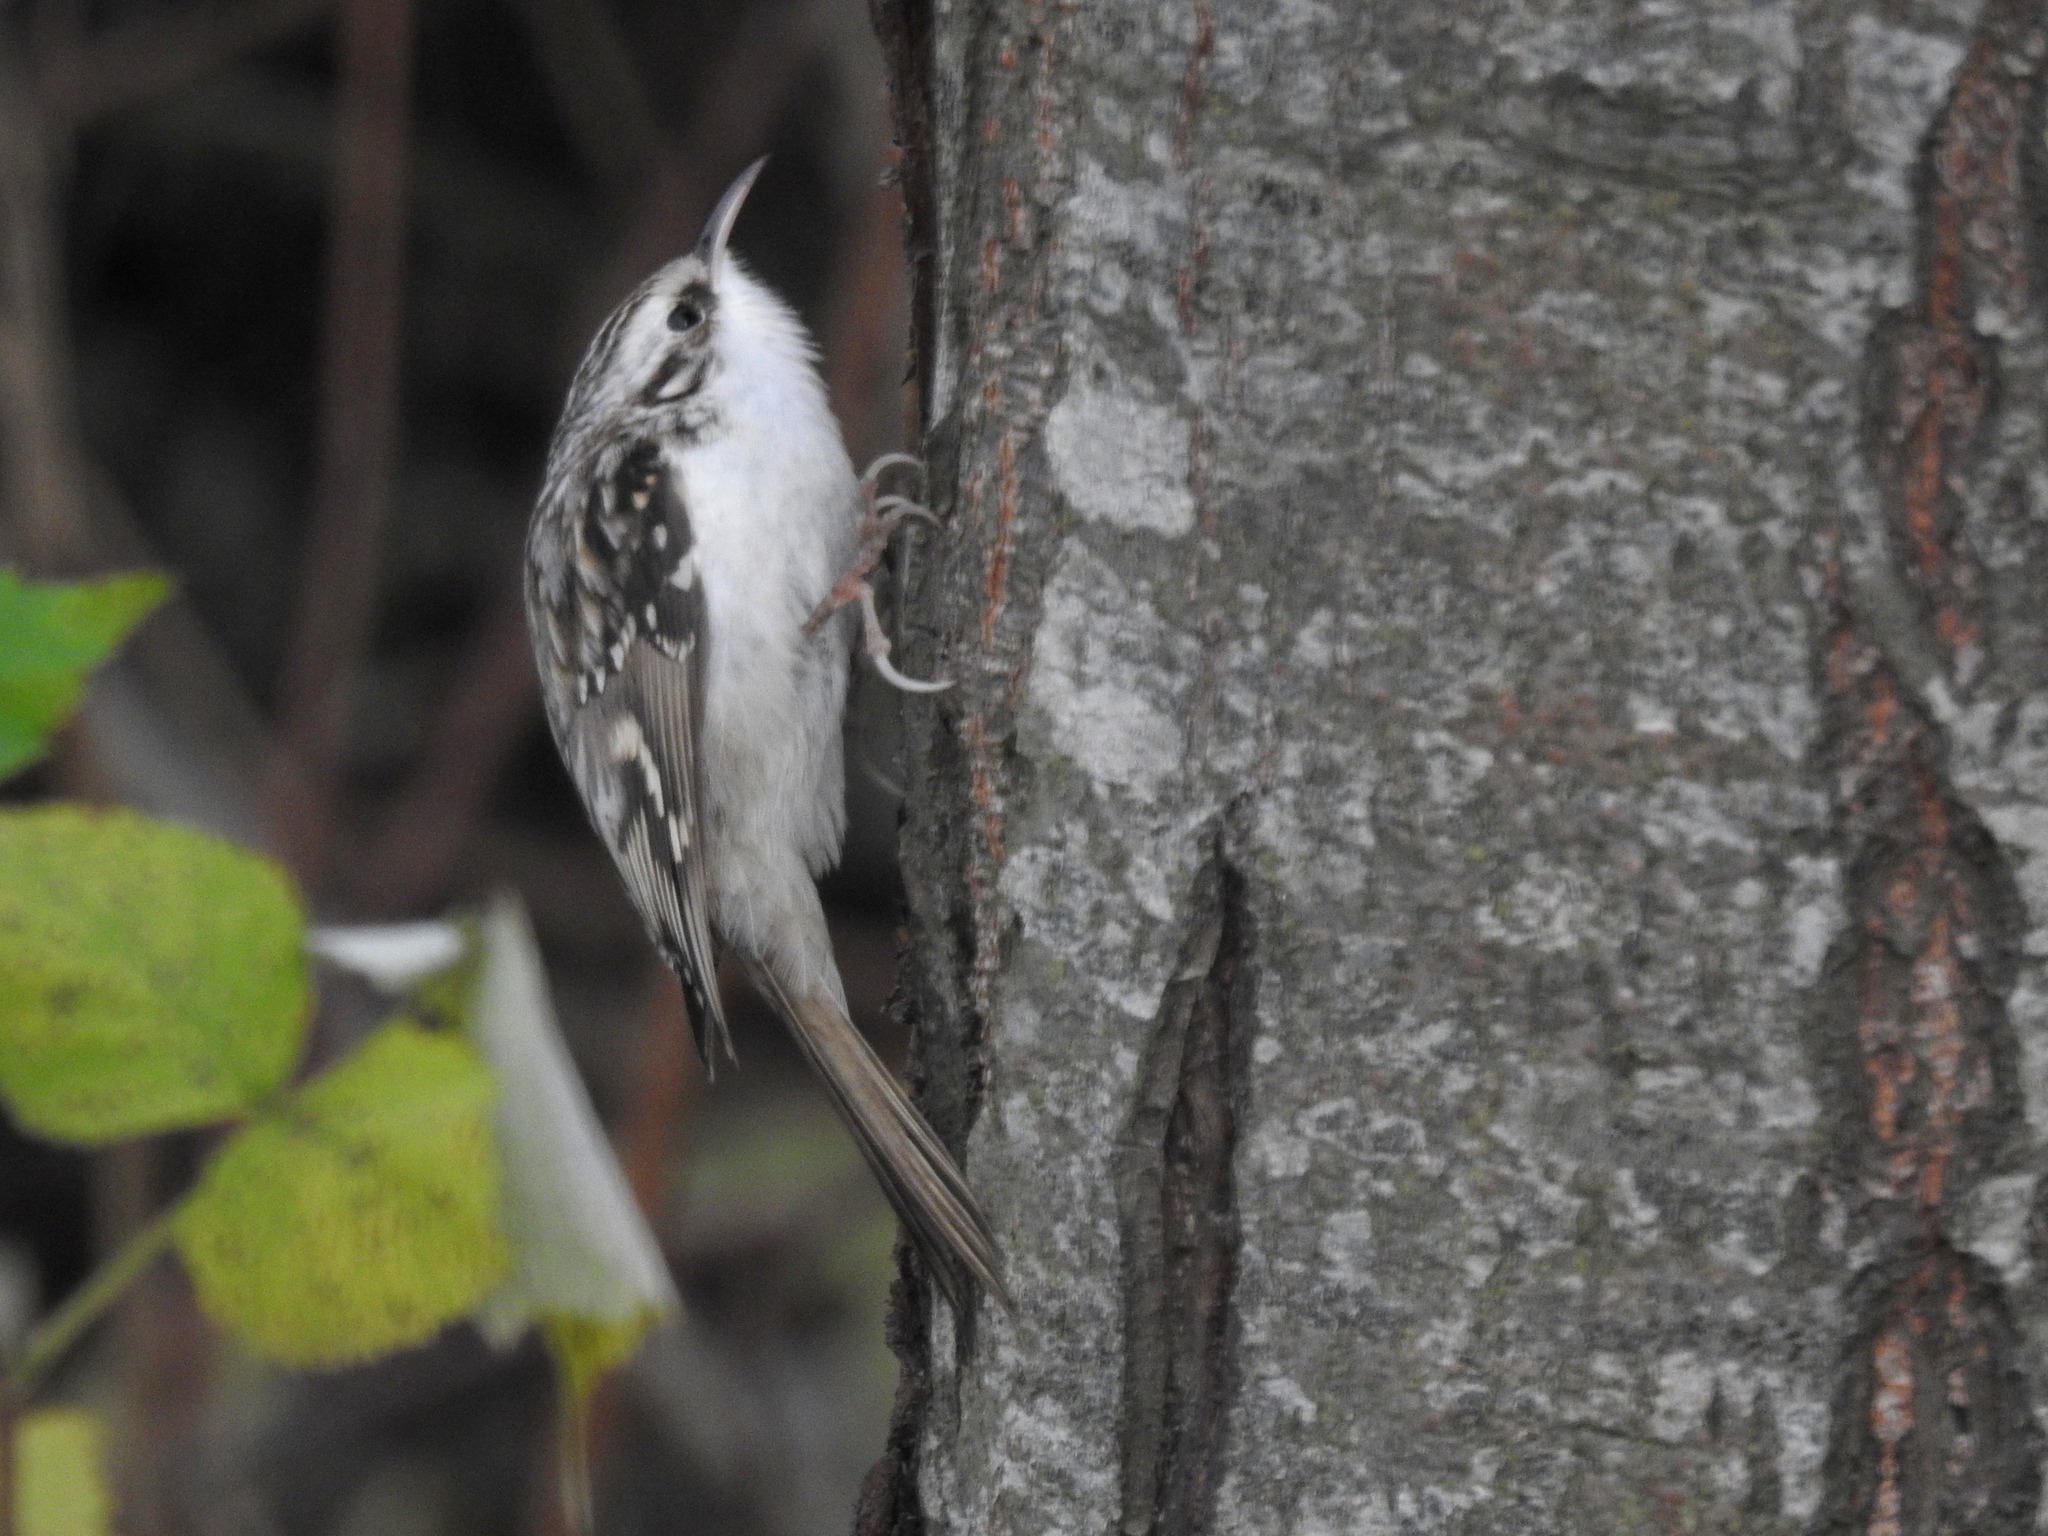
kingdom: Animalia
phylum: Chordata
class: Aves
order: Passeriformes
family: Certhiidae
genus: Certhia
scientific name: Certhia familiaris
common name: Eurasian treecreeper
